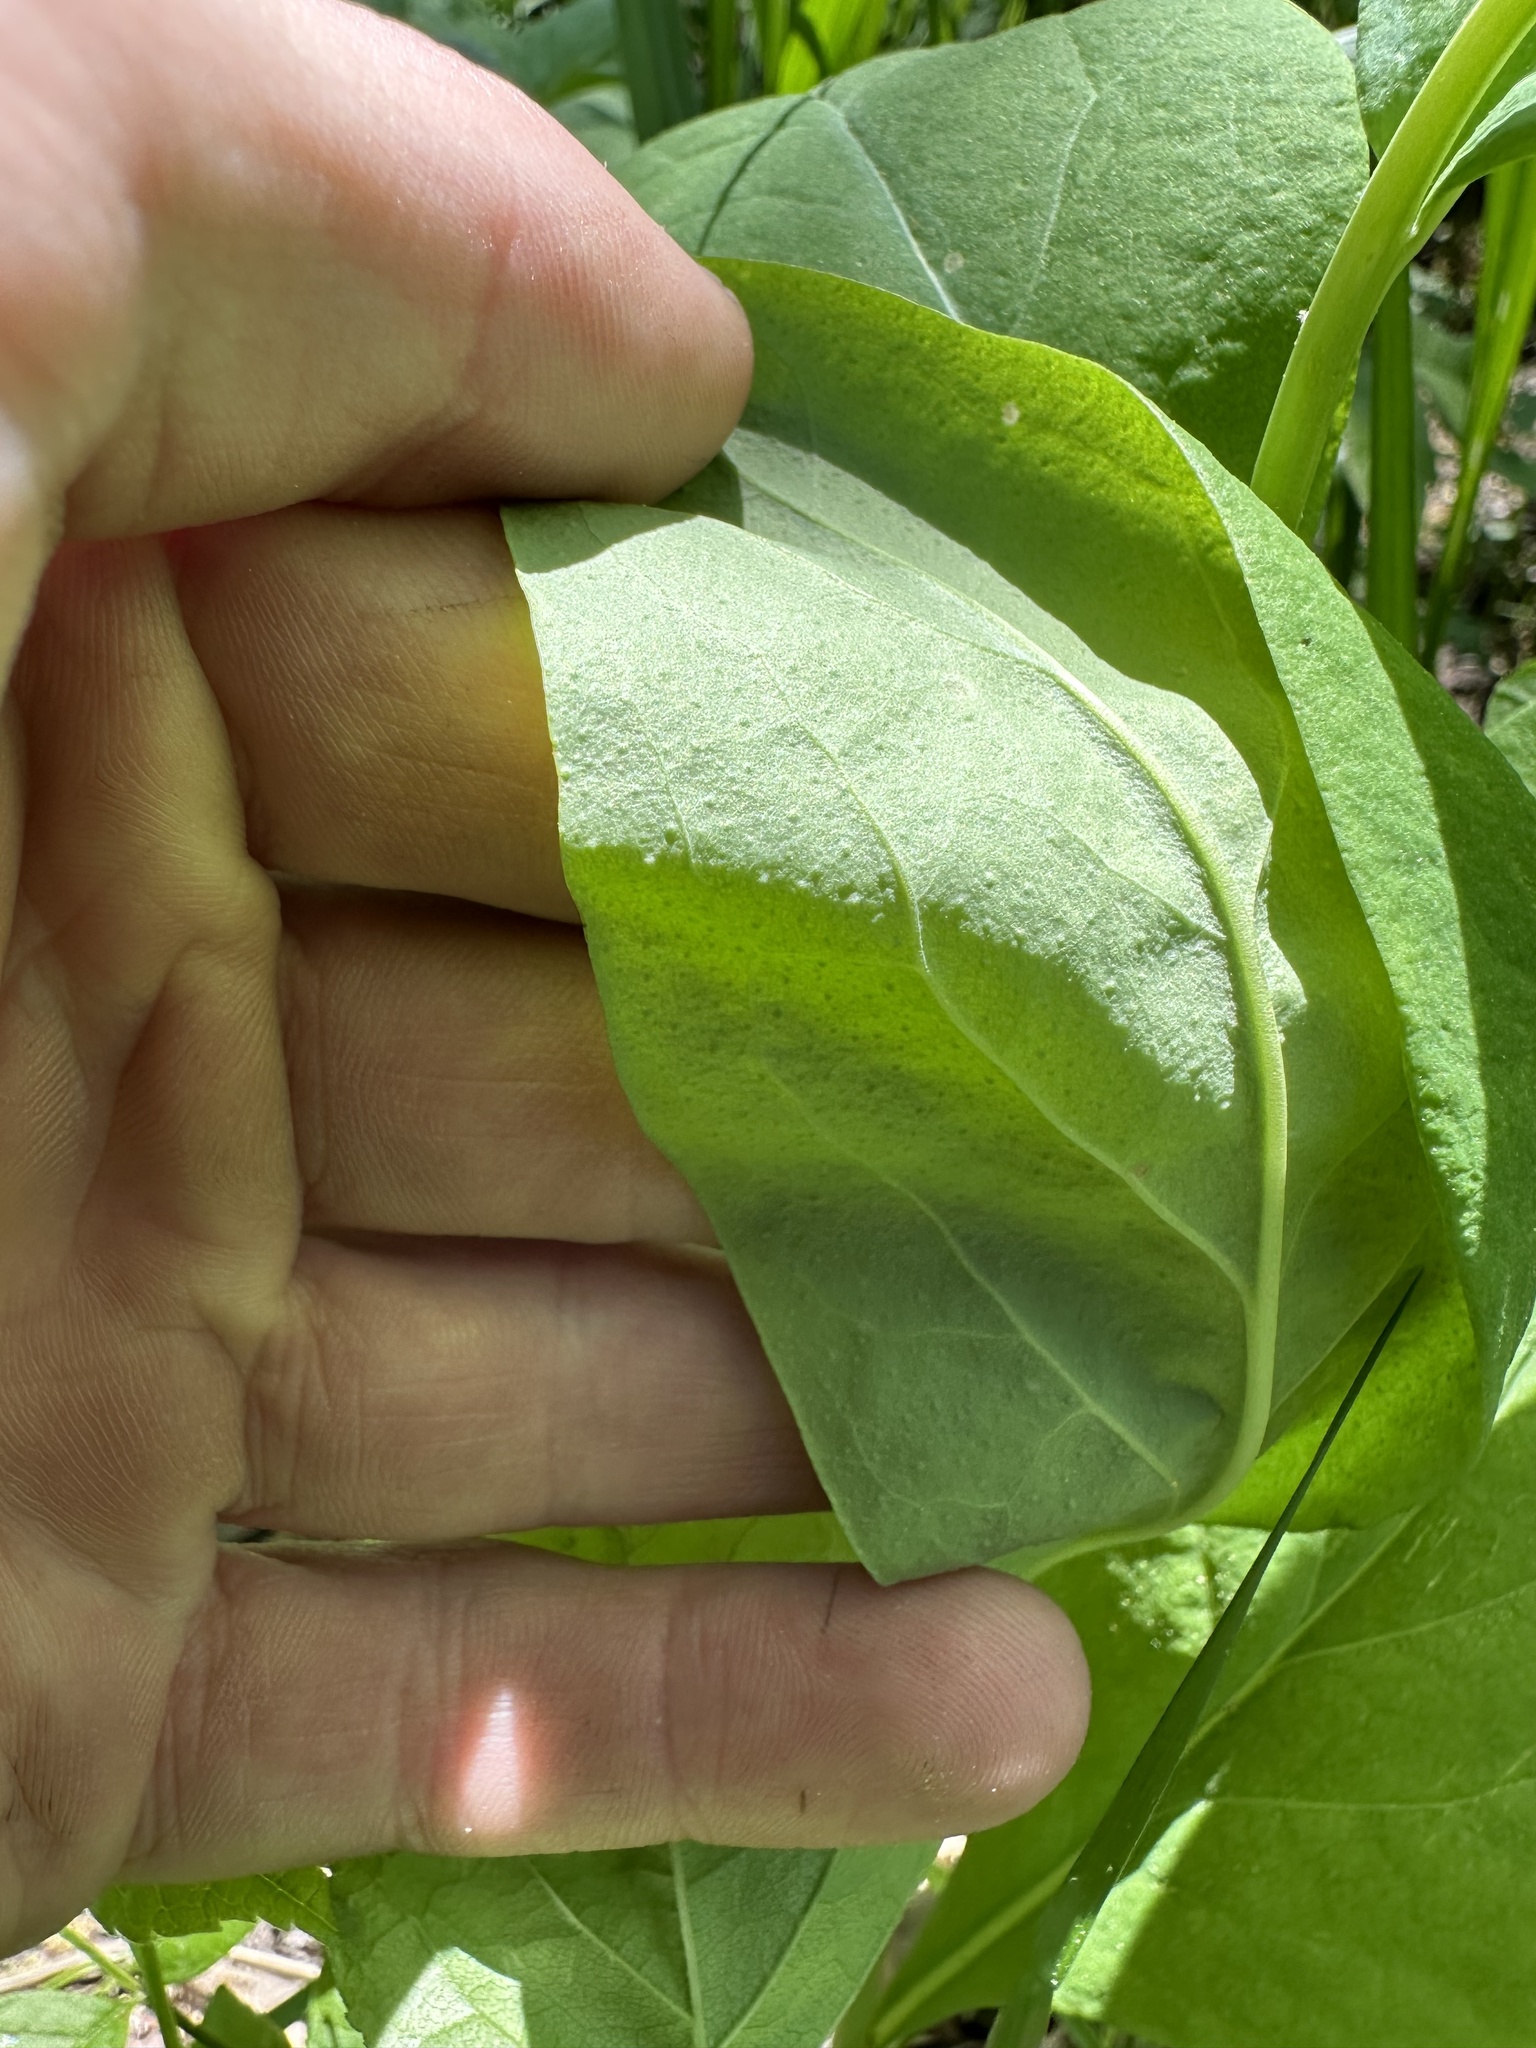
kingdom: Plantae
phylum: Tracheophyta
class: Magnoliopsida
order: Boraginales
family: Boraginaceae
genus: Mertensia
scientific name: Mertensia virginica
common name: Virginia bluebells
